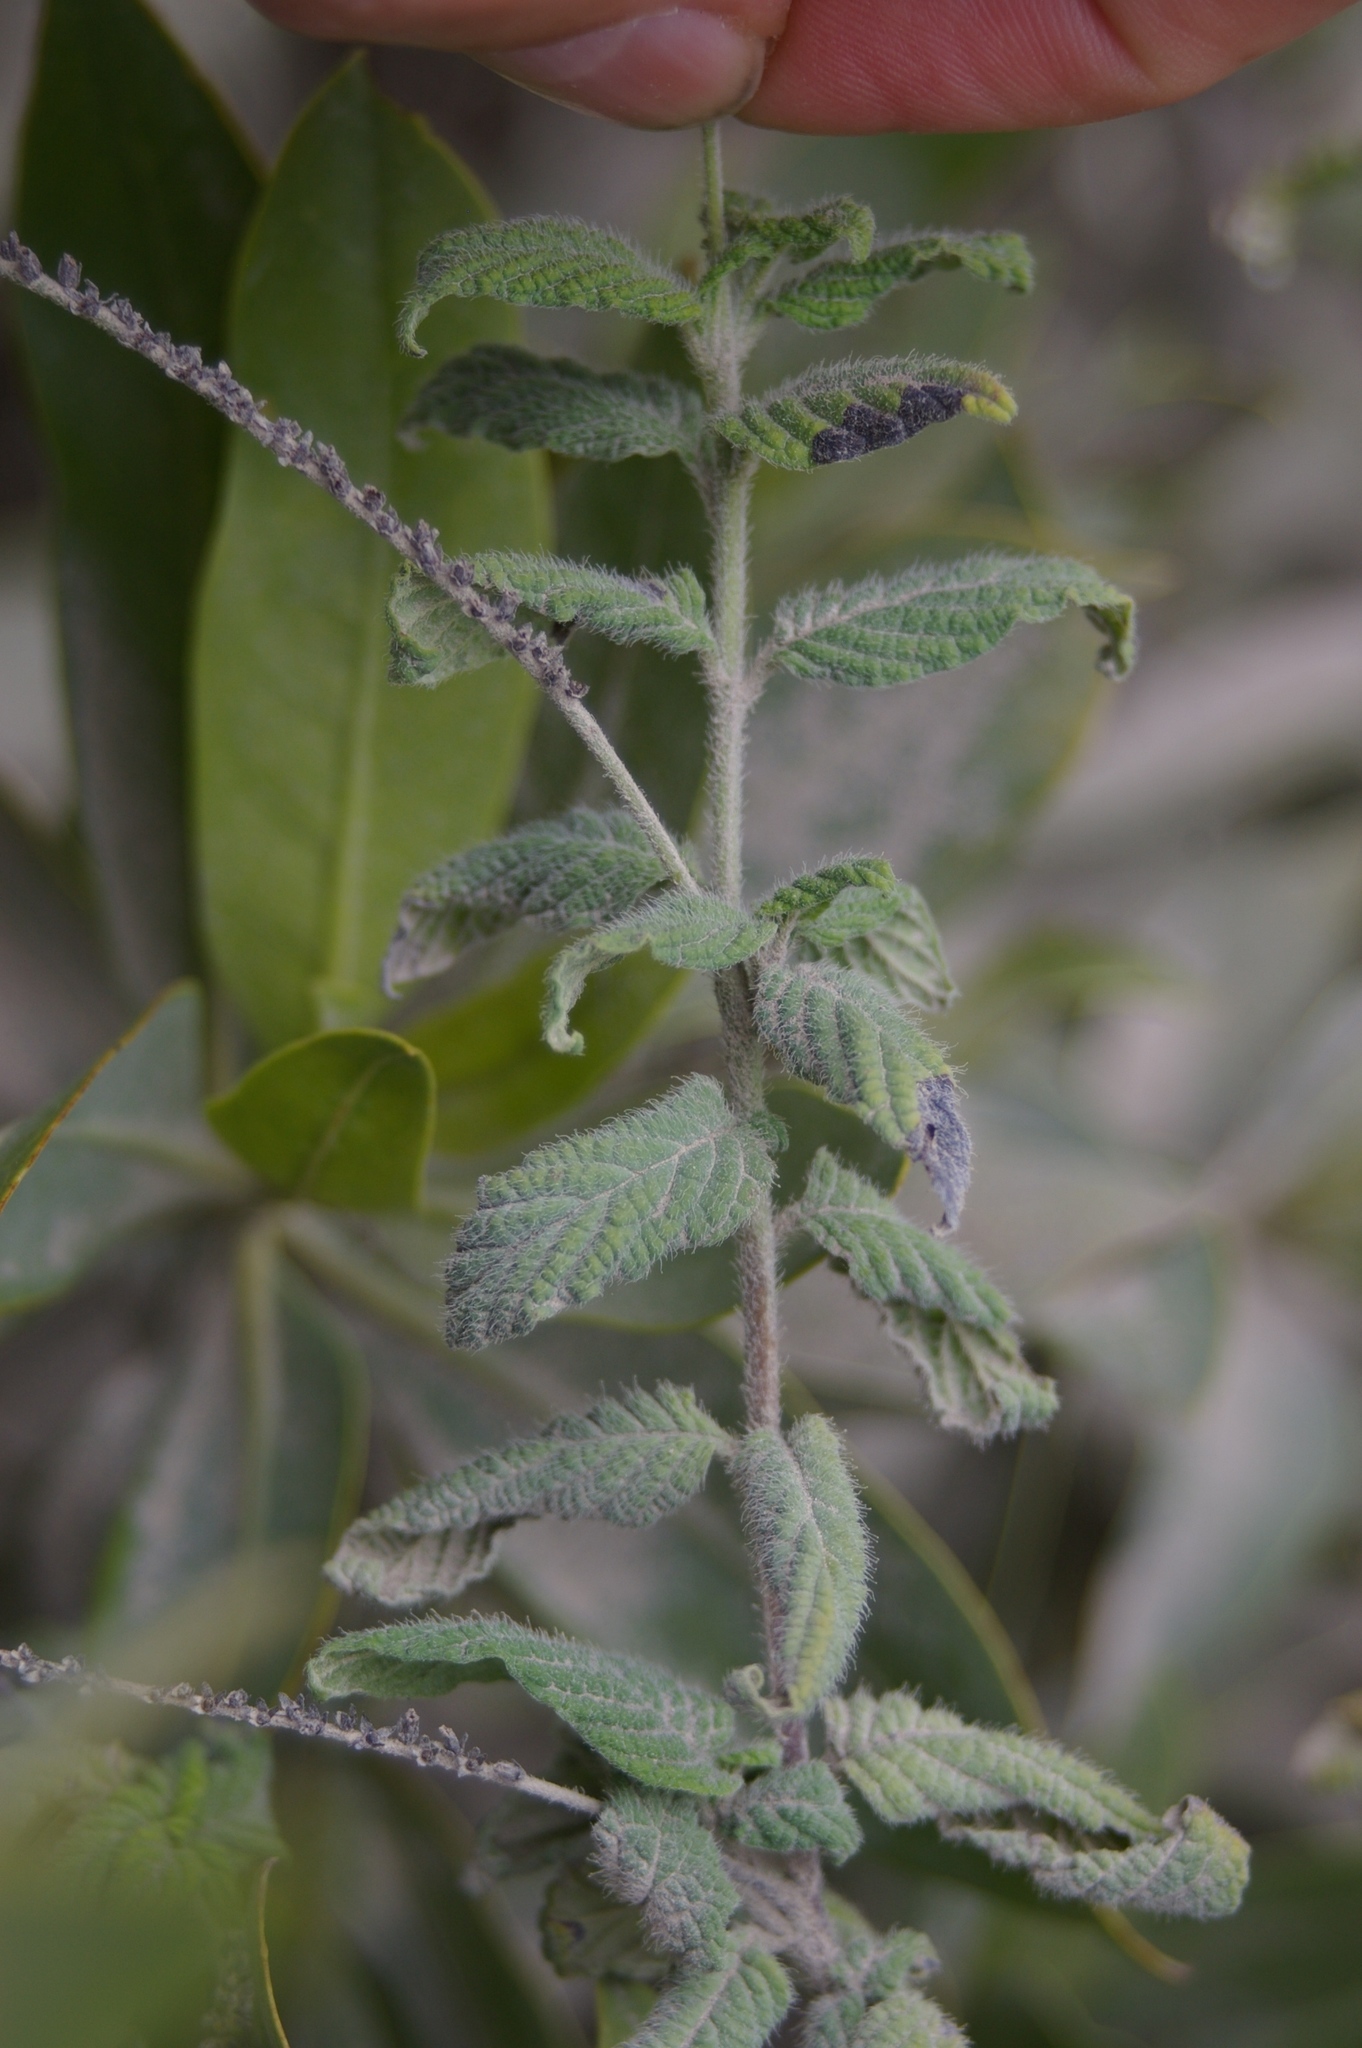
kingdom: Plantae
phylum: Tracheophyta
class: Magnoliopsida
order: Boraginales
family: Heliotropiaceae
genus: Heliotropium
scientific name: Heliotropium angiospermum
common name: Eye bright
